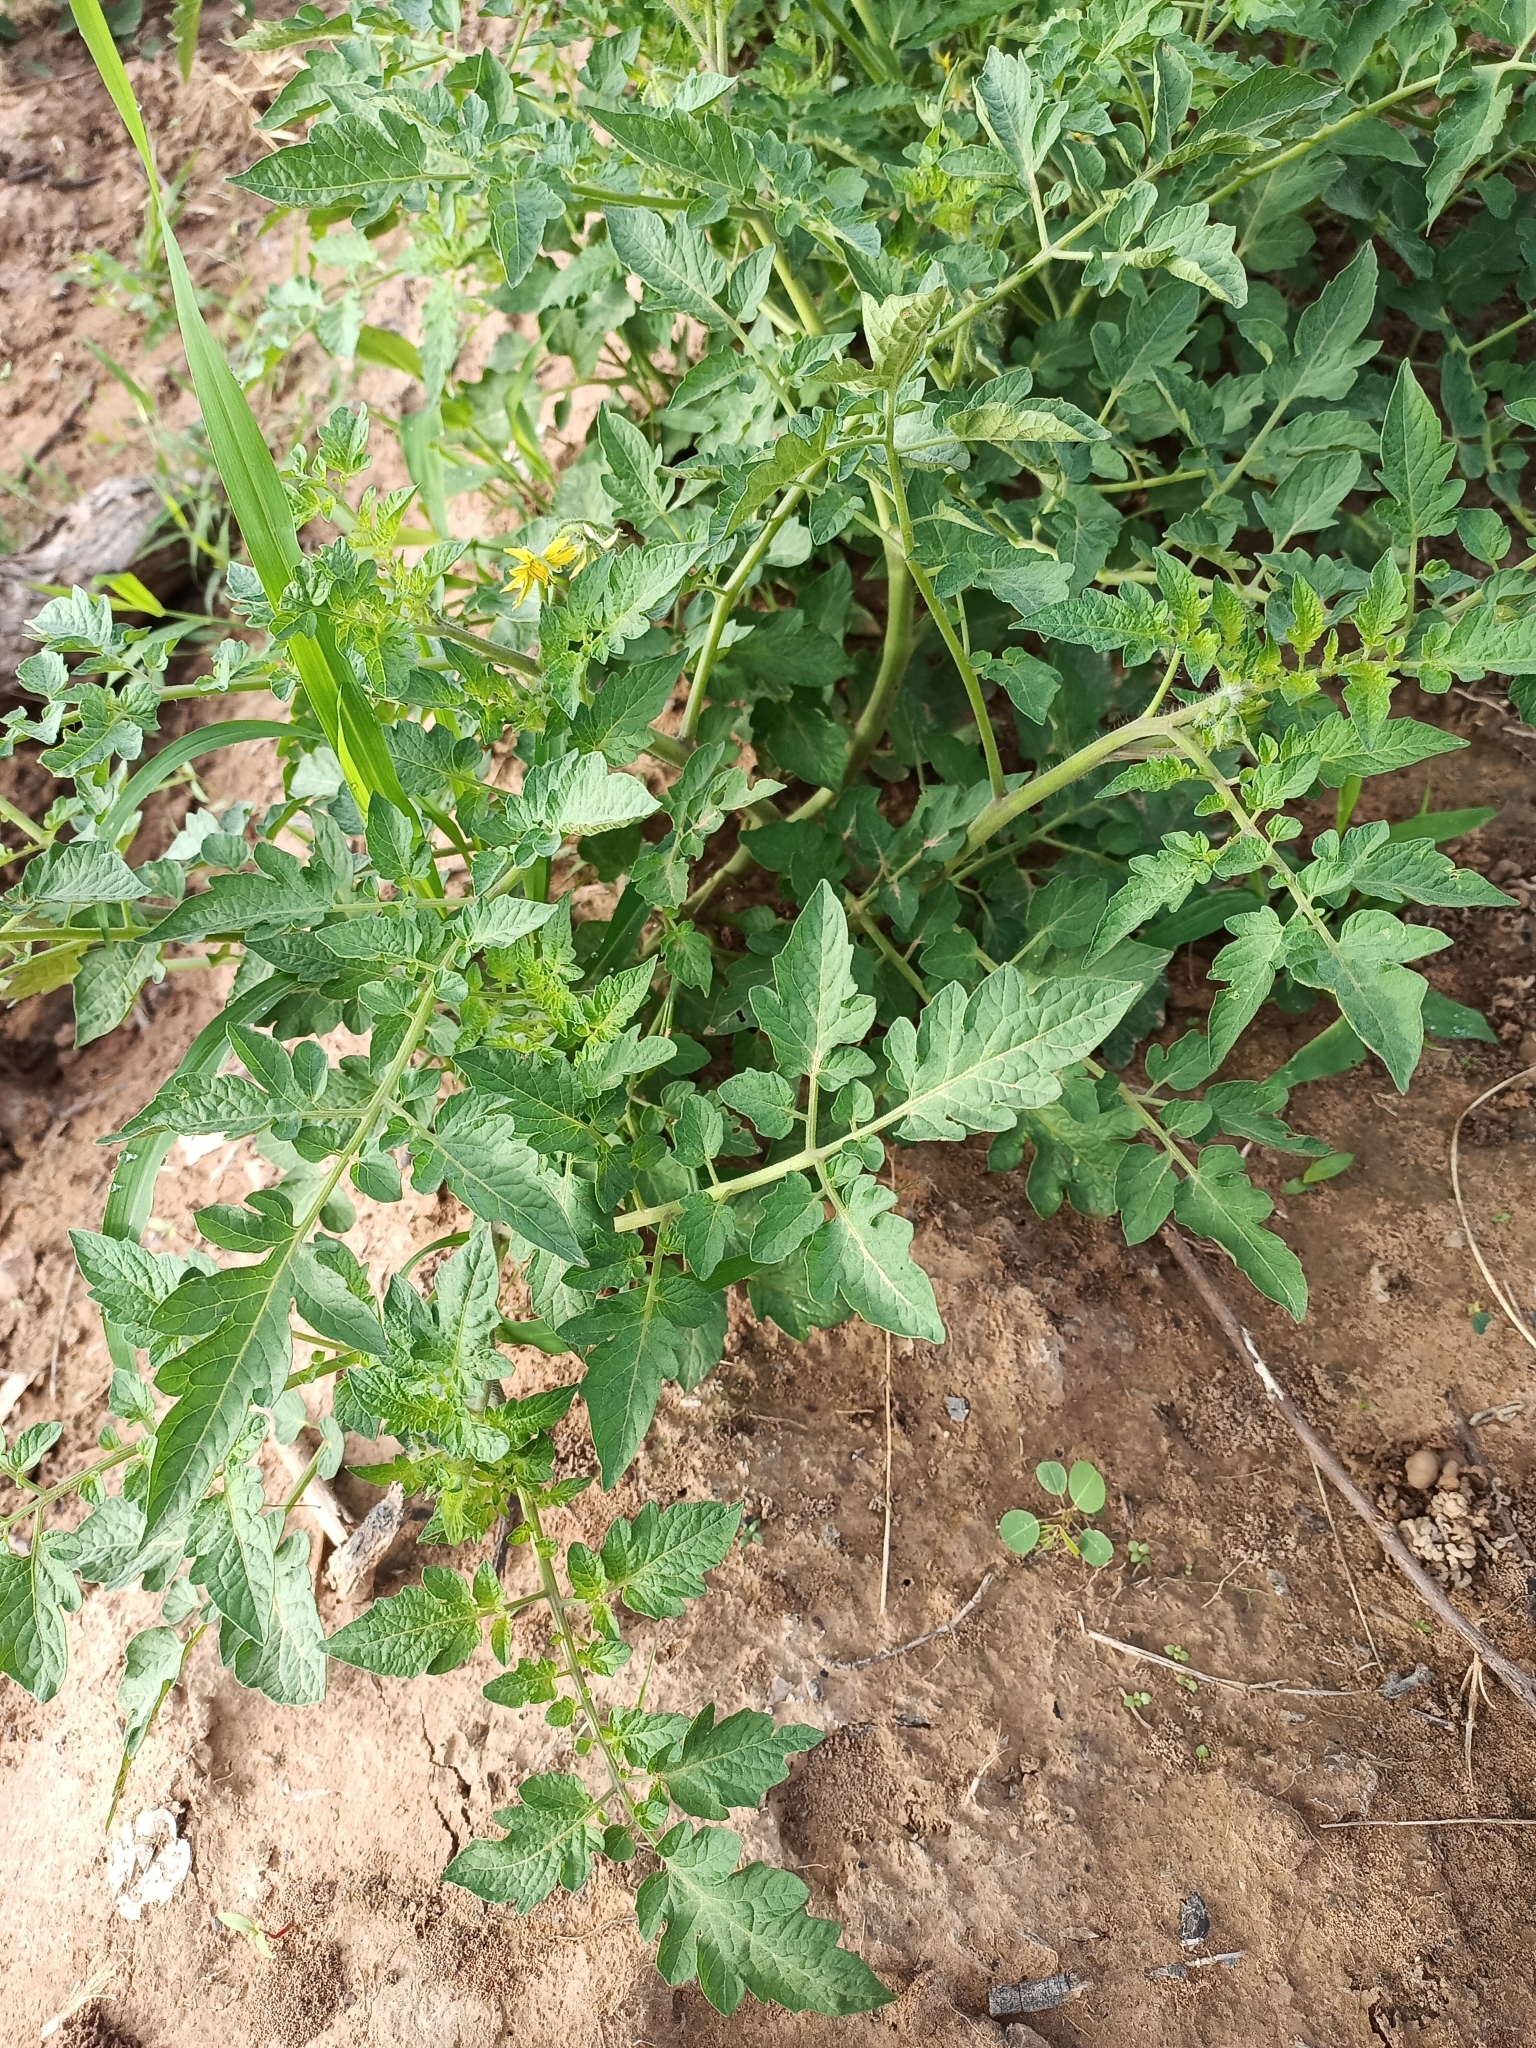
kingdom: Plantae
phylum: Tracheophyta
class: Magnoliopsida
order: Solanales
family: Solanaceae
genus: Solanum
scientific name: Solanum lycopersicum
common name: Garden tomato
